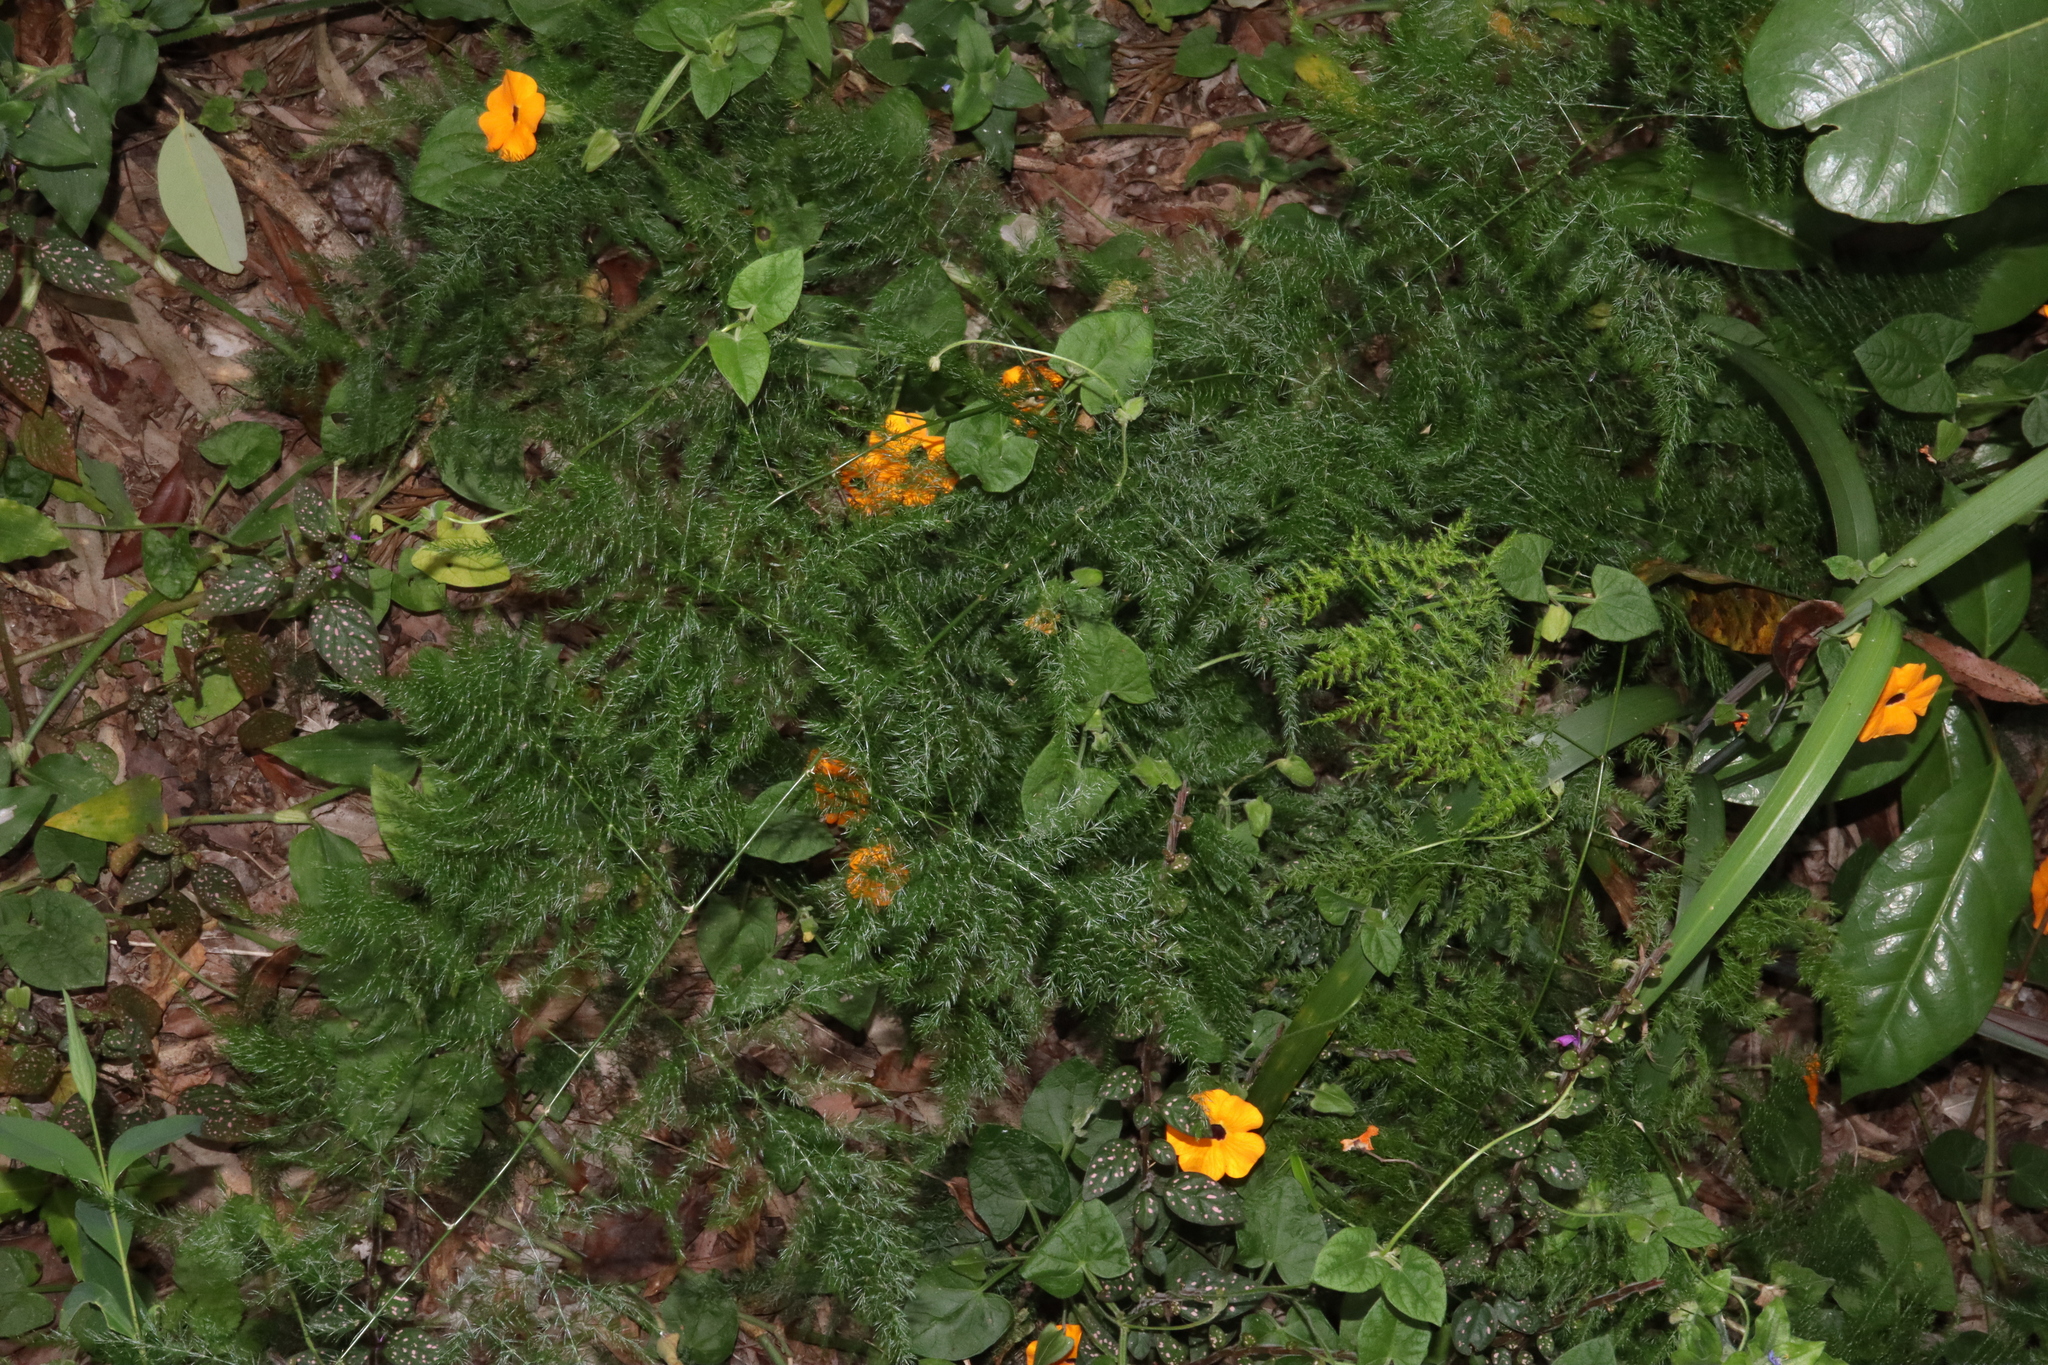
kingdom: Plantae
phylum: Tracheophyta
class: Liliopsida
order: Asparagales
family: Asparagaceae
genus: Asparagus
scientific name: Asparagus setaceus
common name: Common asparagus fern
